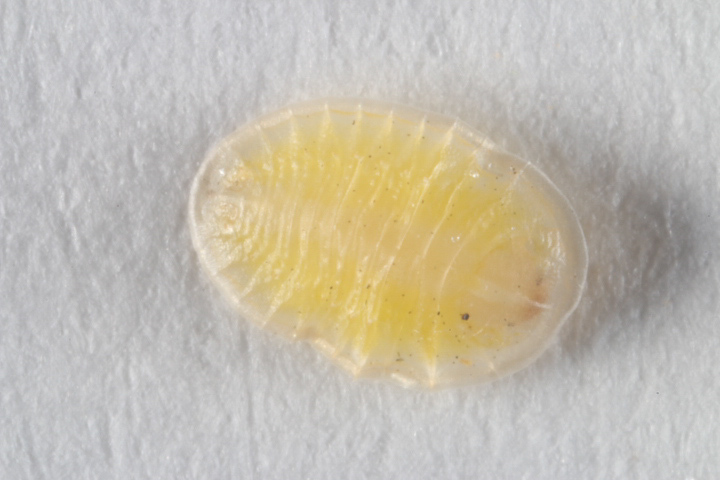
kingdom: Animalia
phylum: Arthropoda
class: Insecta
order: Coleoptera
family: Chrysomelidae
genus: Demotispa
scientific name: Demotispa florianoi
